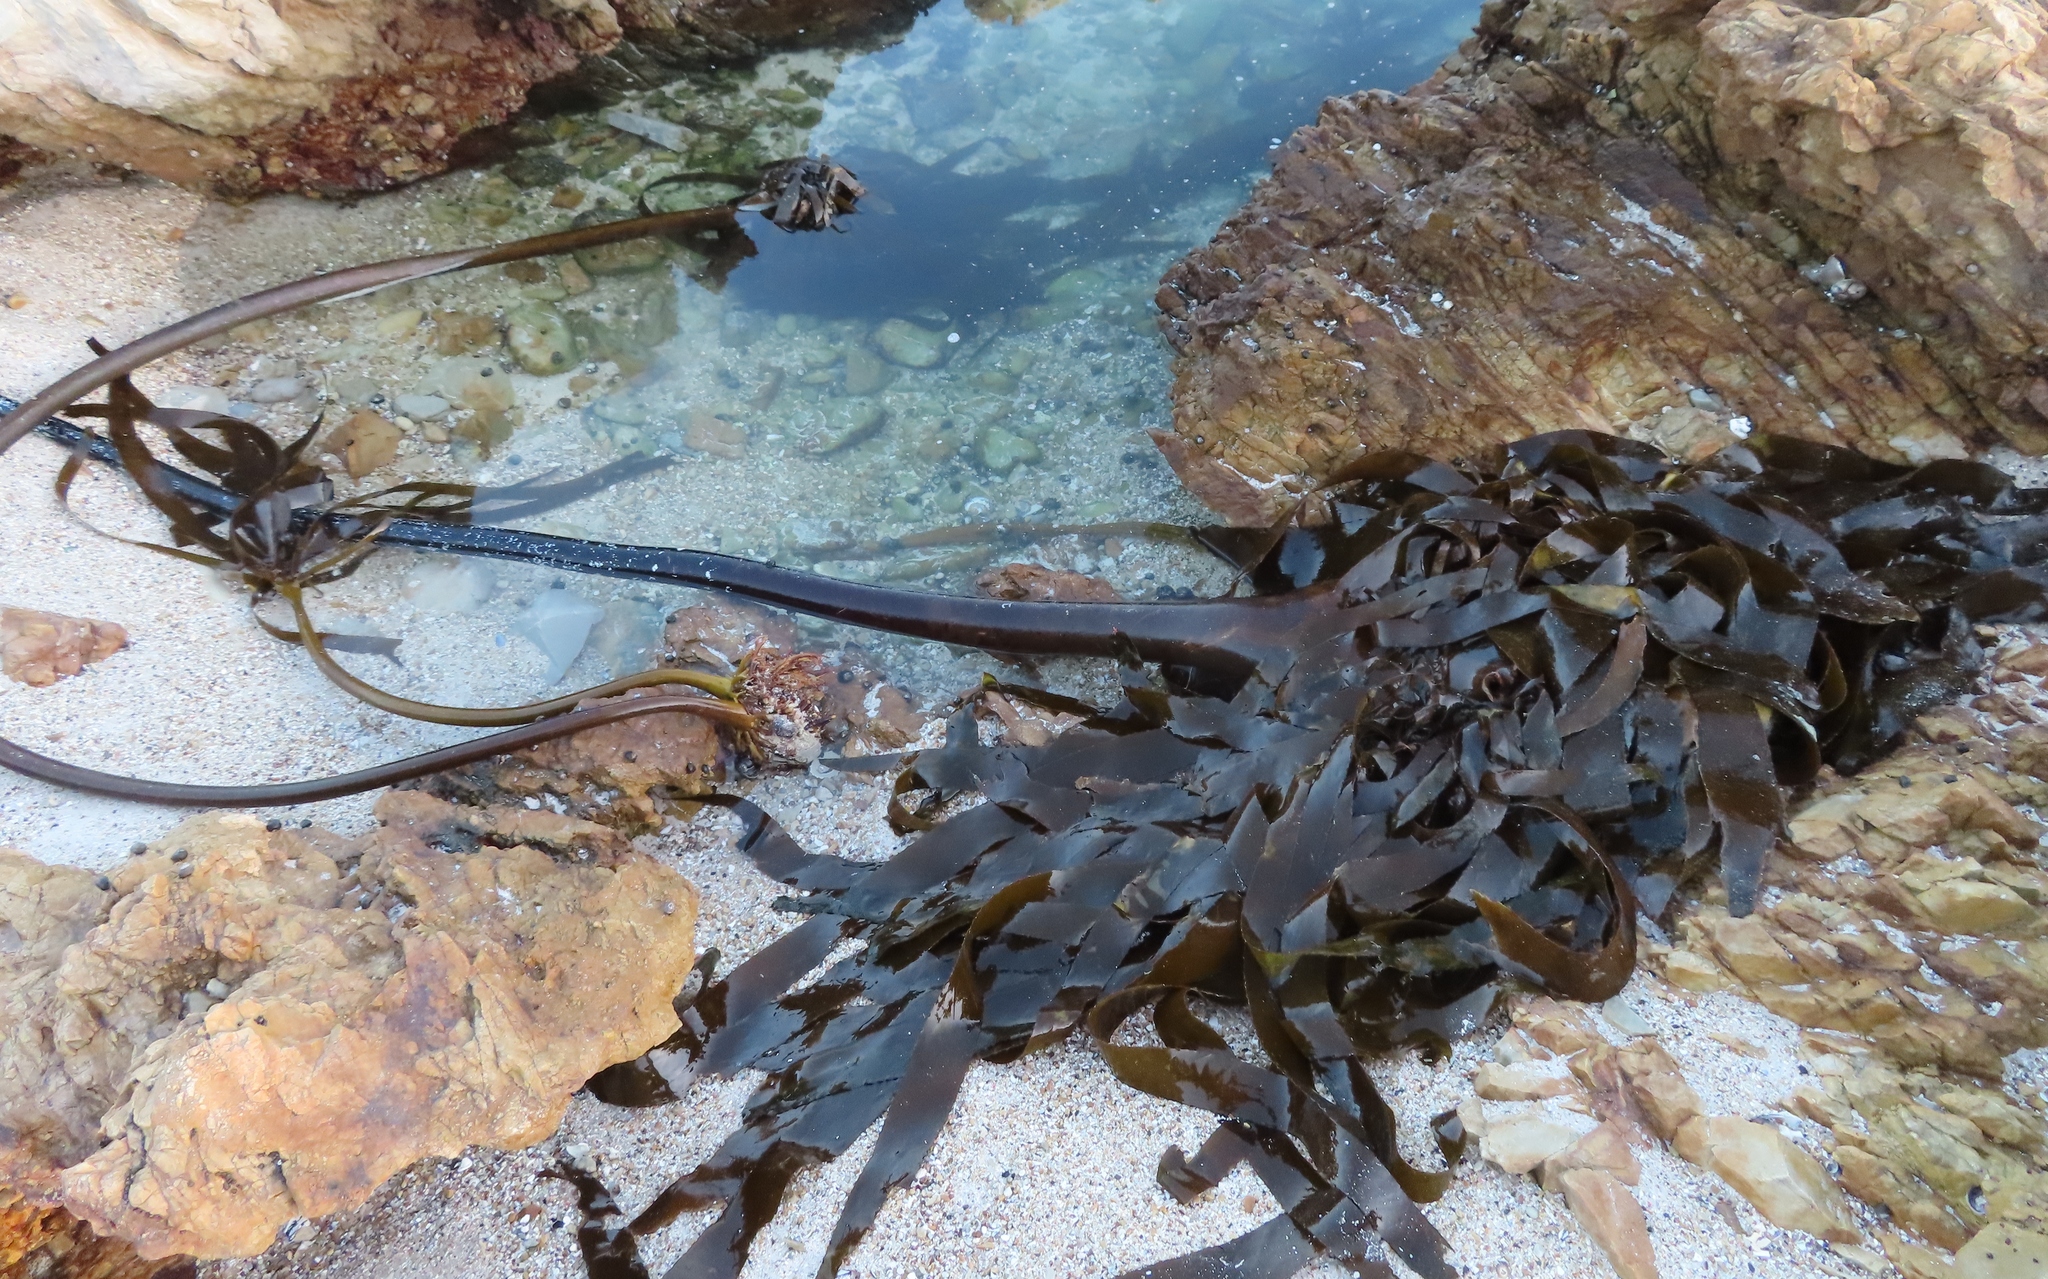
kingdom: Chromista
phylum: Ochrophyta
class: Phaeophyceae
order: Laminariales
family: Lessoniaceae
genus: Ecklonia
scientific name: Ecklonia
